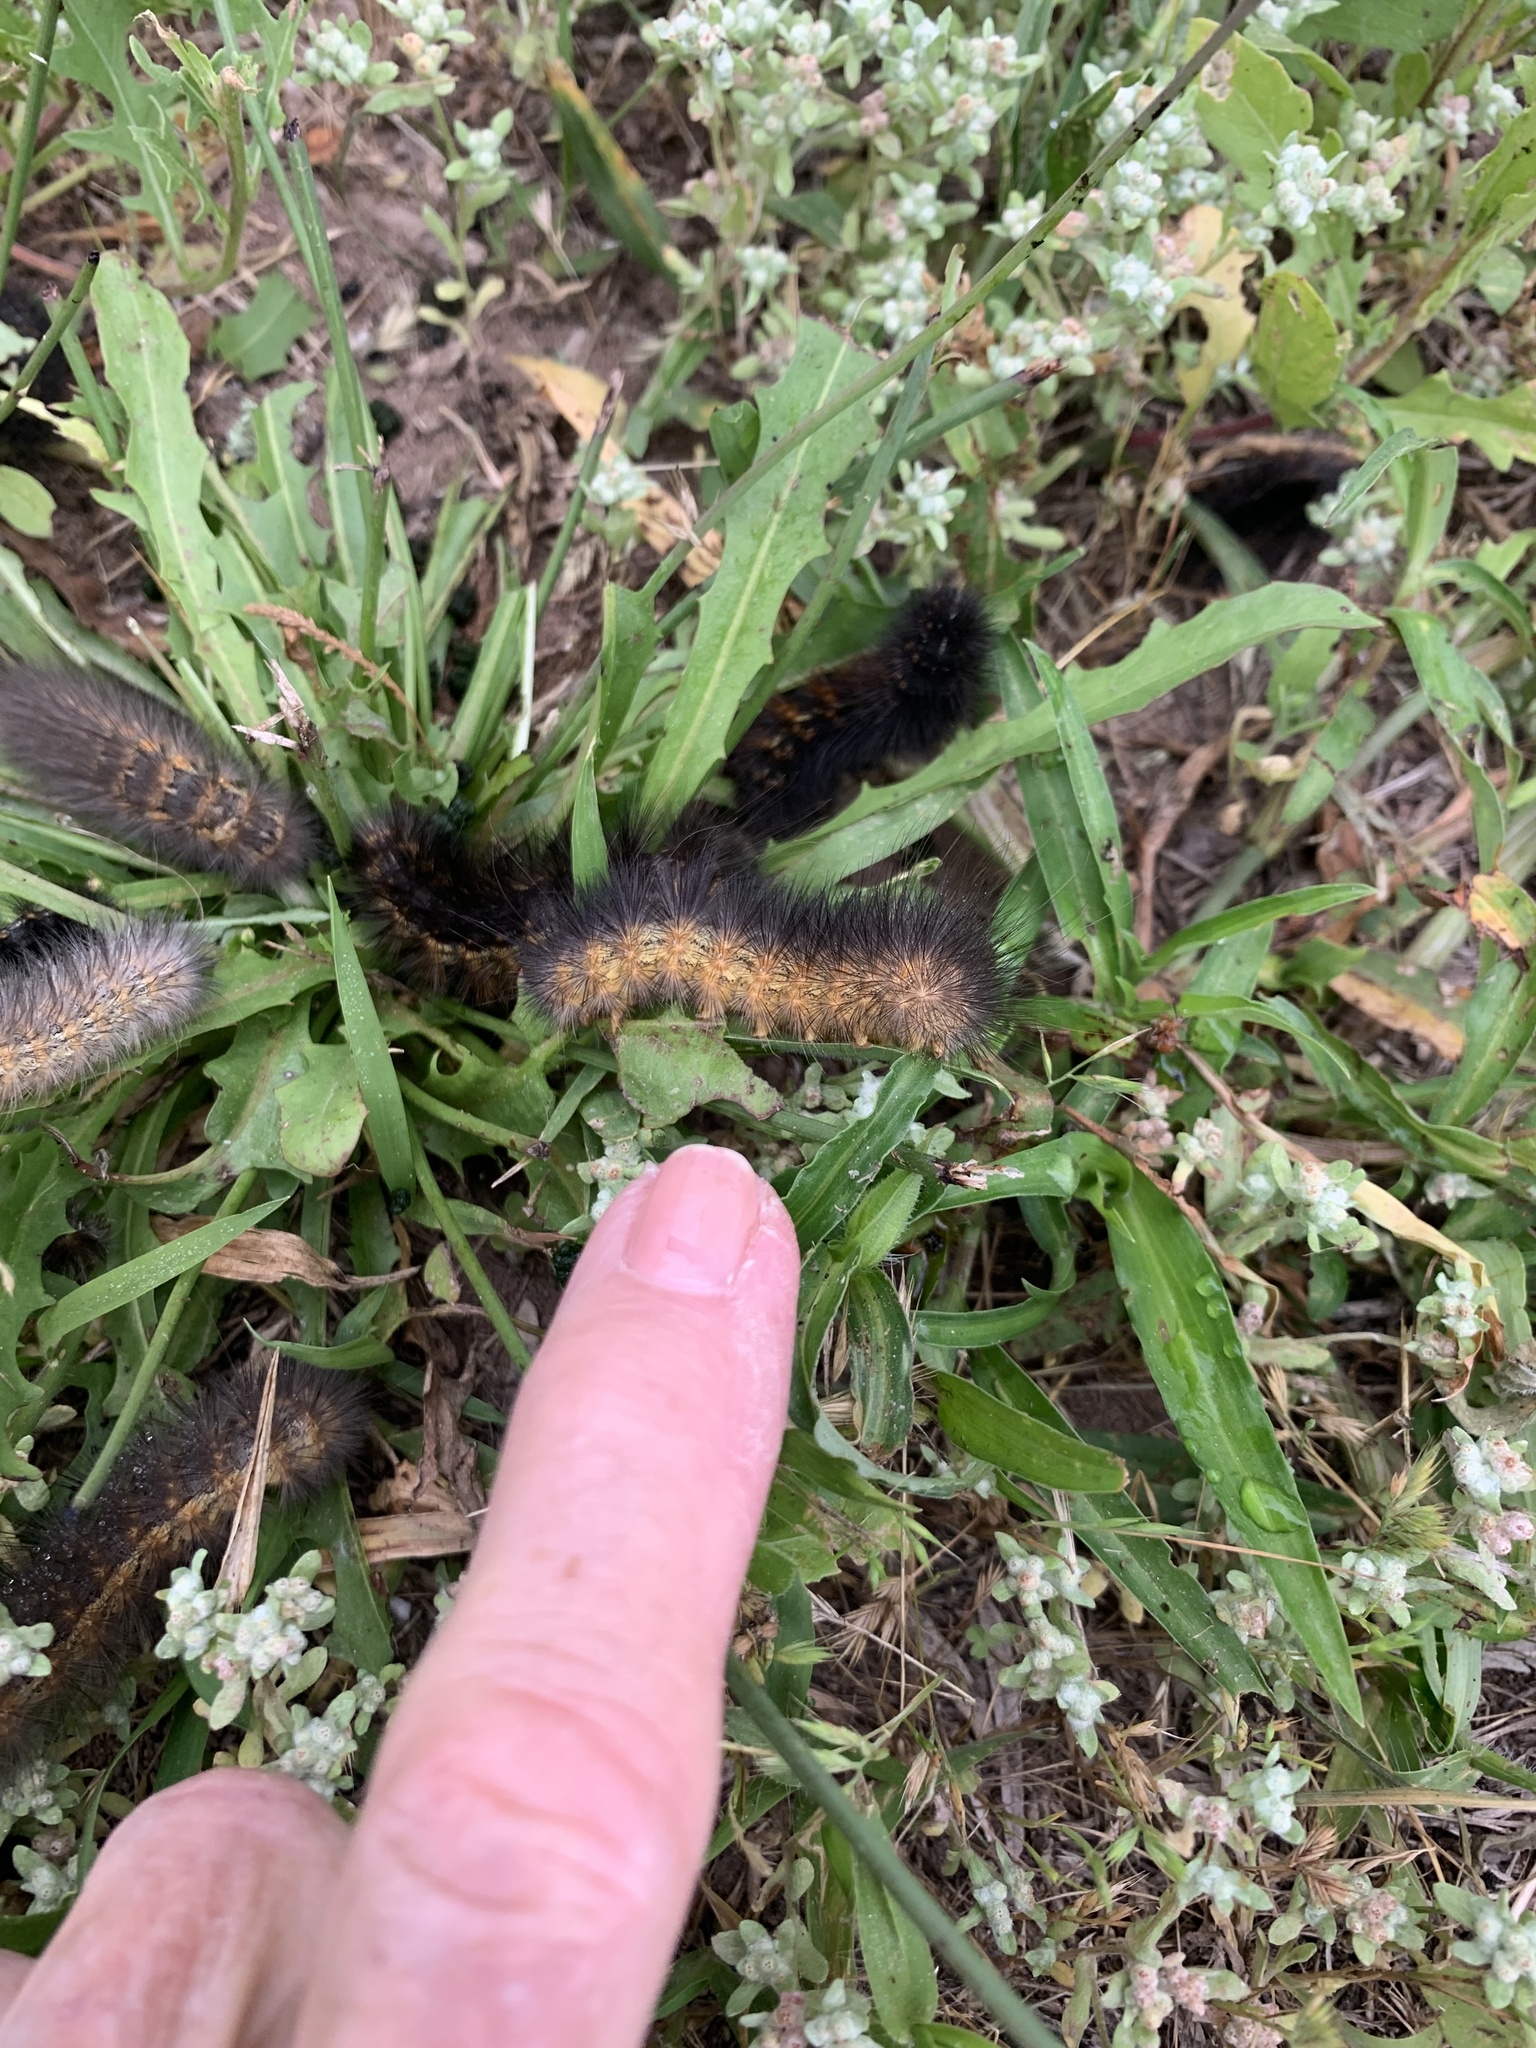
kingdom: Animalia
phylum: Arthropoda
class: Insecta
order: Lepidoptera
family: Erebidae
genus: Estigmene
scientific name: Estigmene acrea
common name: Salt marsh moth
